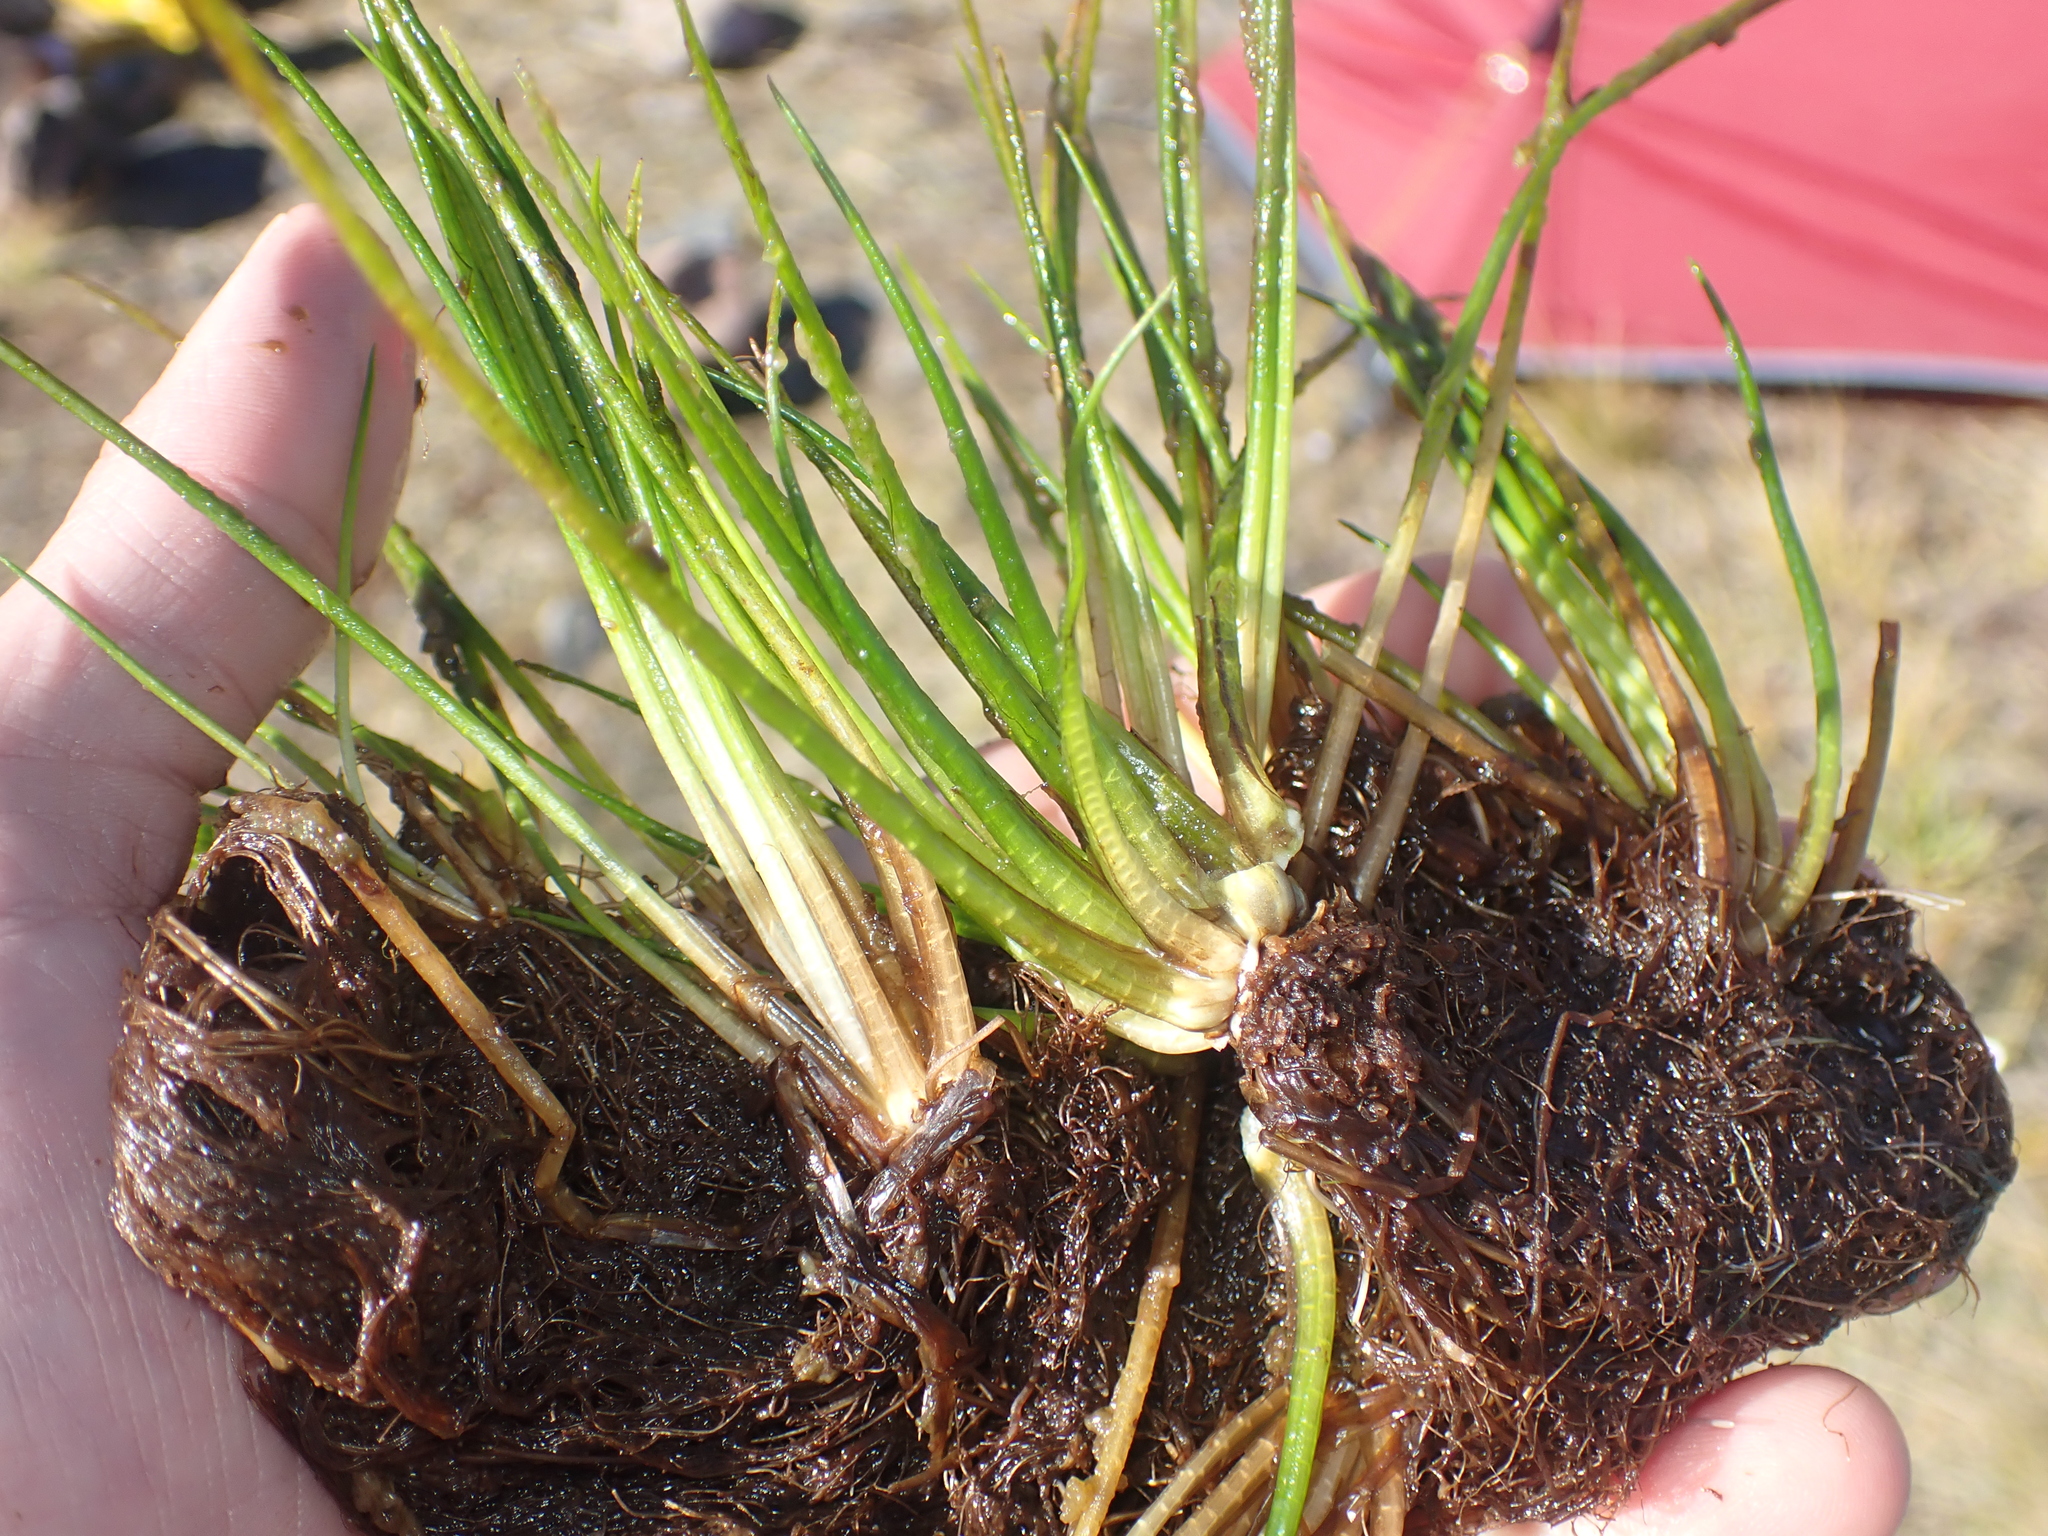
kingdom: Plantae
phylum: Tracheophyta
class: Lycopodiopsida
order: Isoetales
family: Isoetaceae
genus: Isoetes
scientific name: Isoetes alpina
